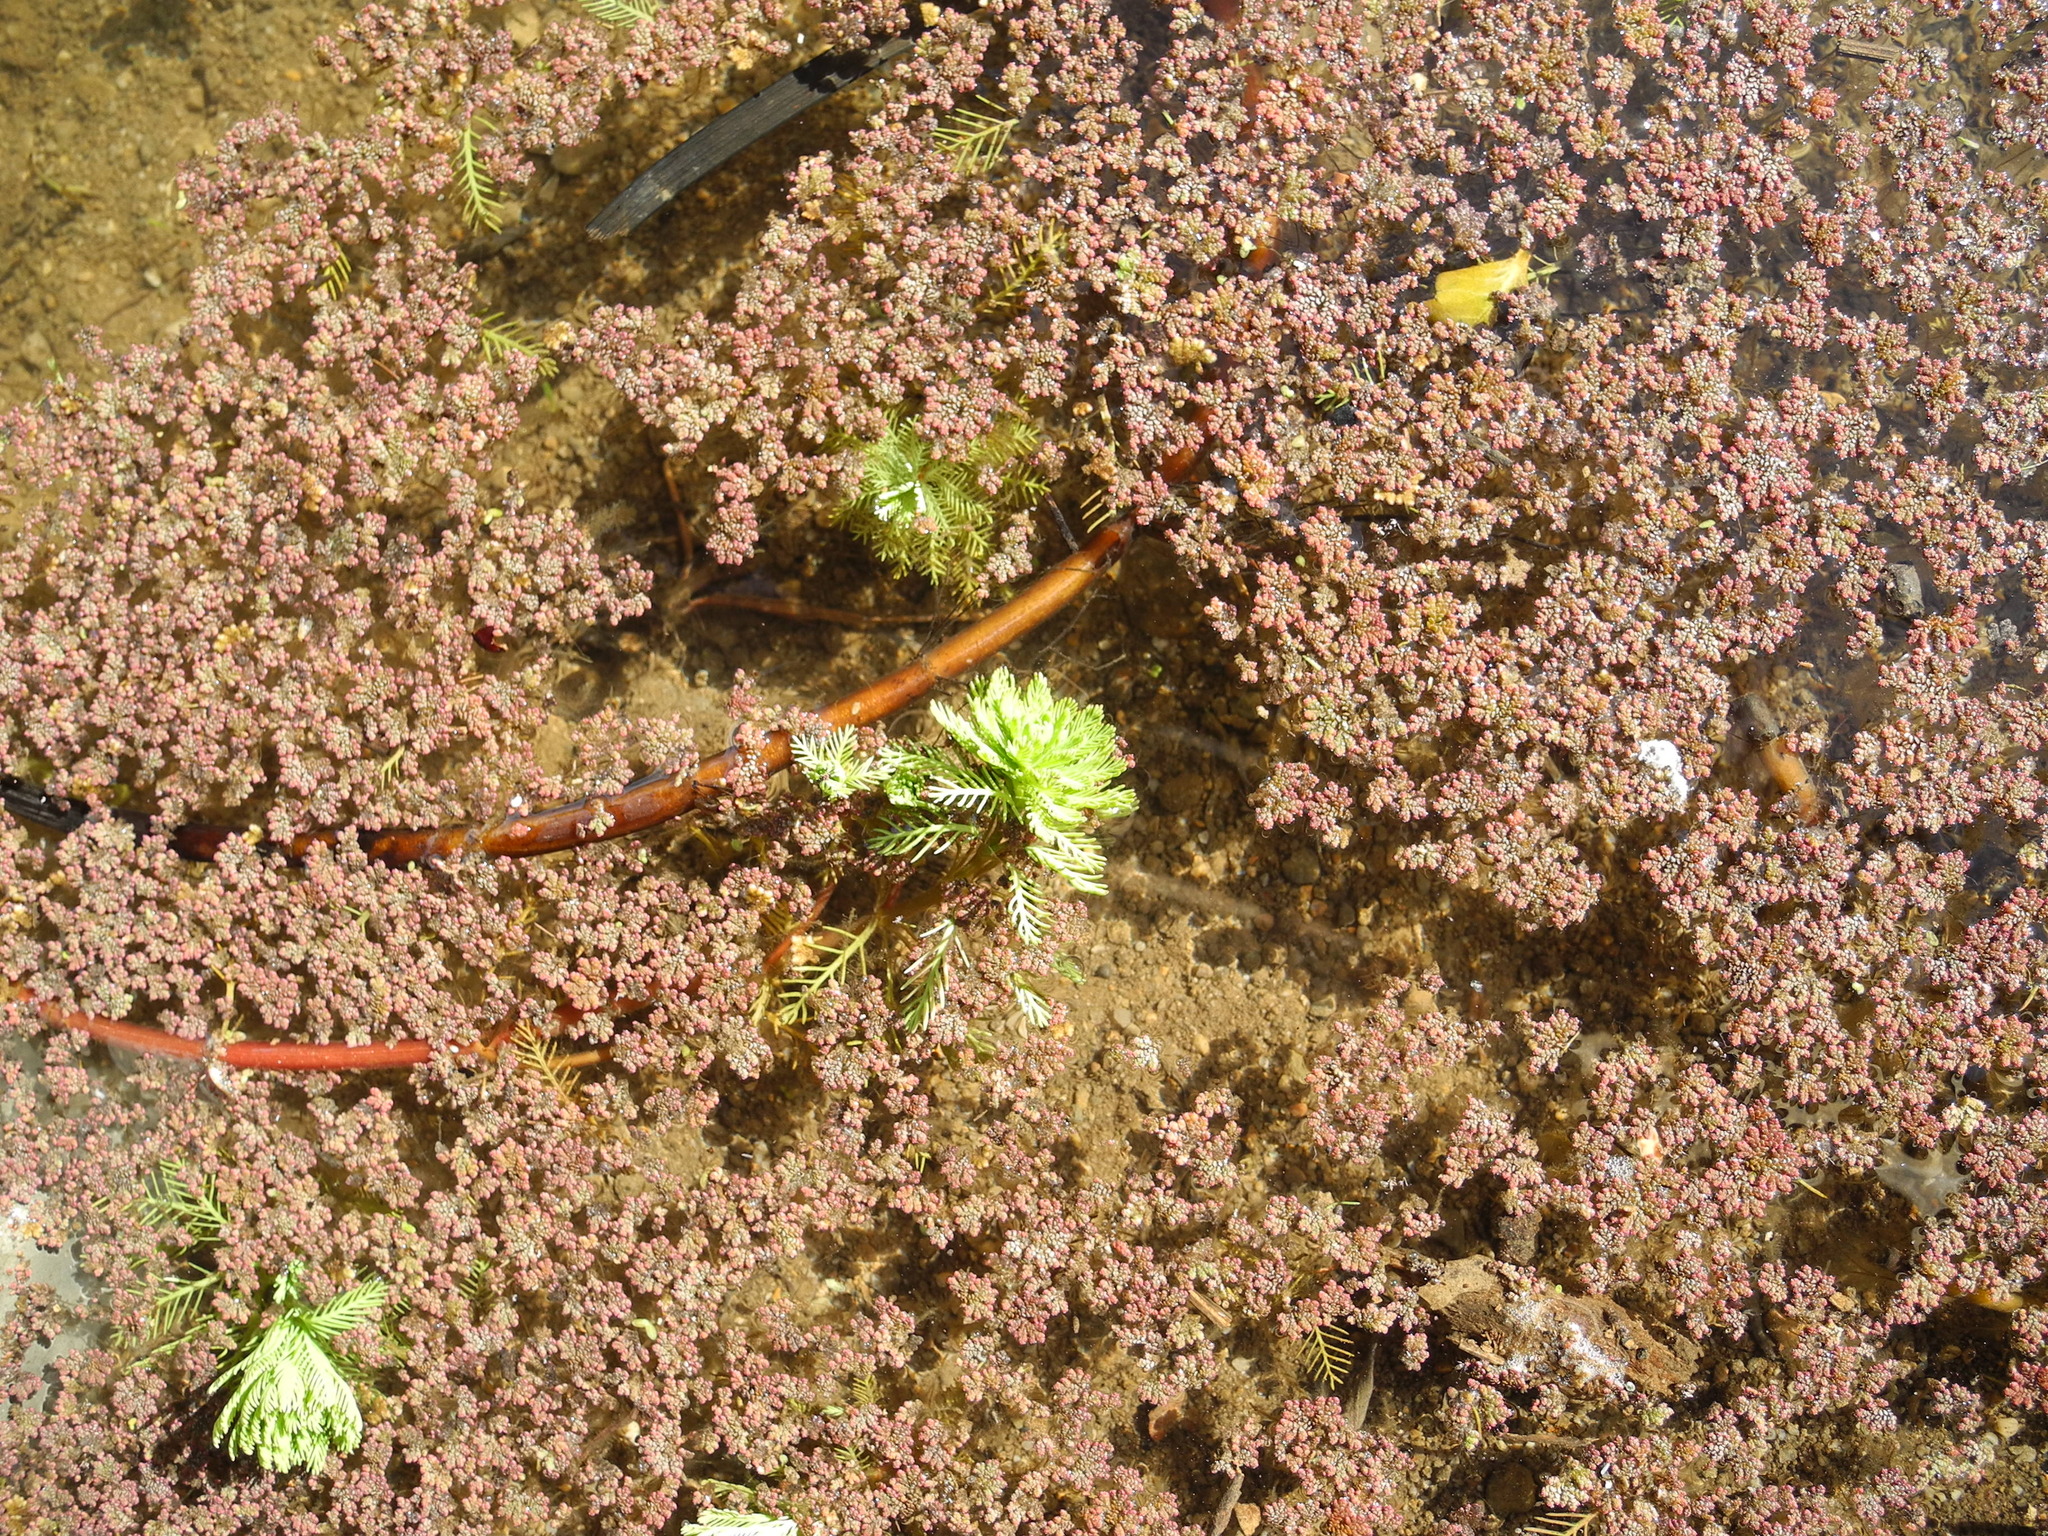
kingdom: Plantae
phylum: Tracheophyta
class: Magnoliopsida
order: Saxifragales
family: Haloragaceae
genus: Myriophyllum
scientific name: Myriophyllum aquaticum
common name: Parrot's feather
